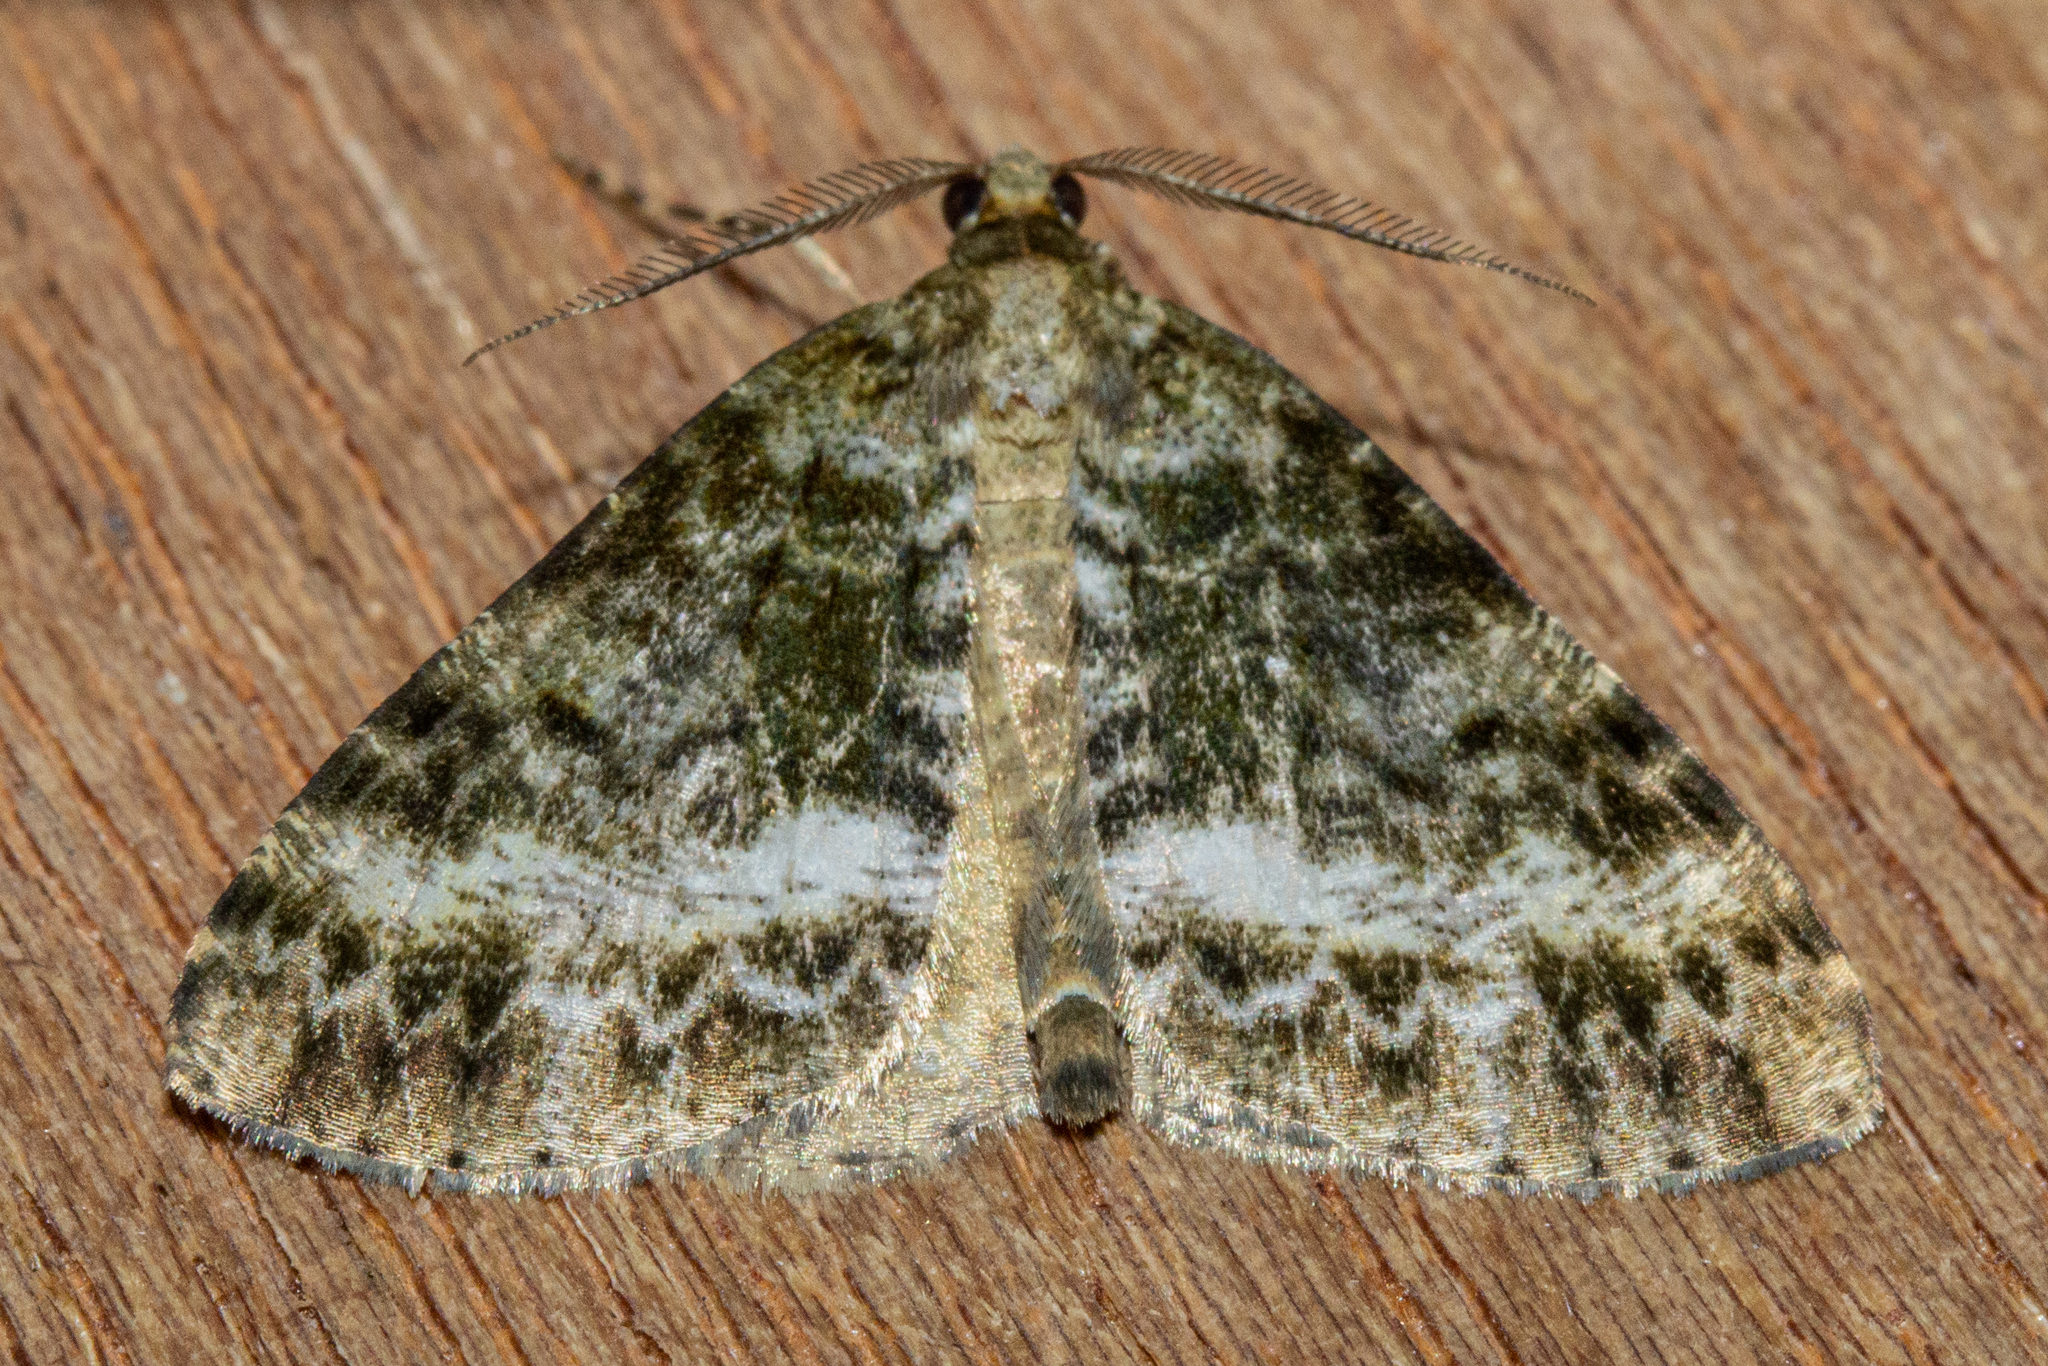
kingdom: Animalia
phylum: Arthropoda
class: Insecta
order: Lepidoptera
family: Geometridae
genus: Pseudocoremia
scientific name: Pseudocoremia lactiflua
